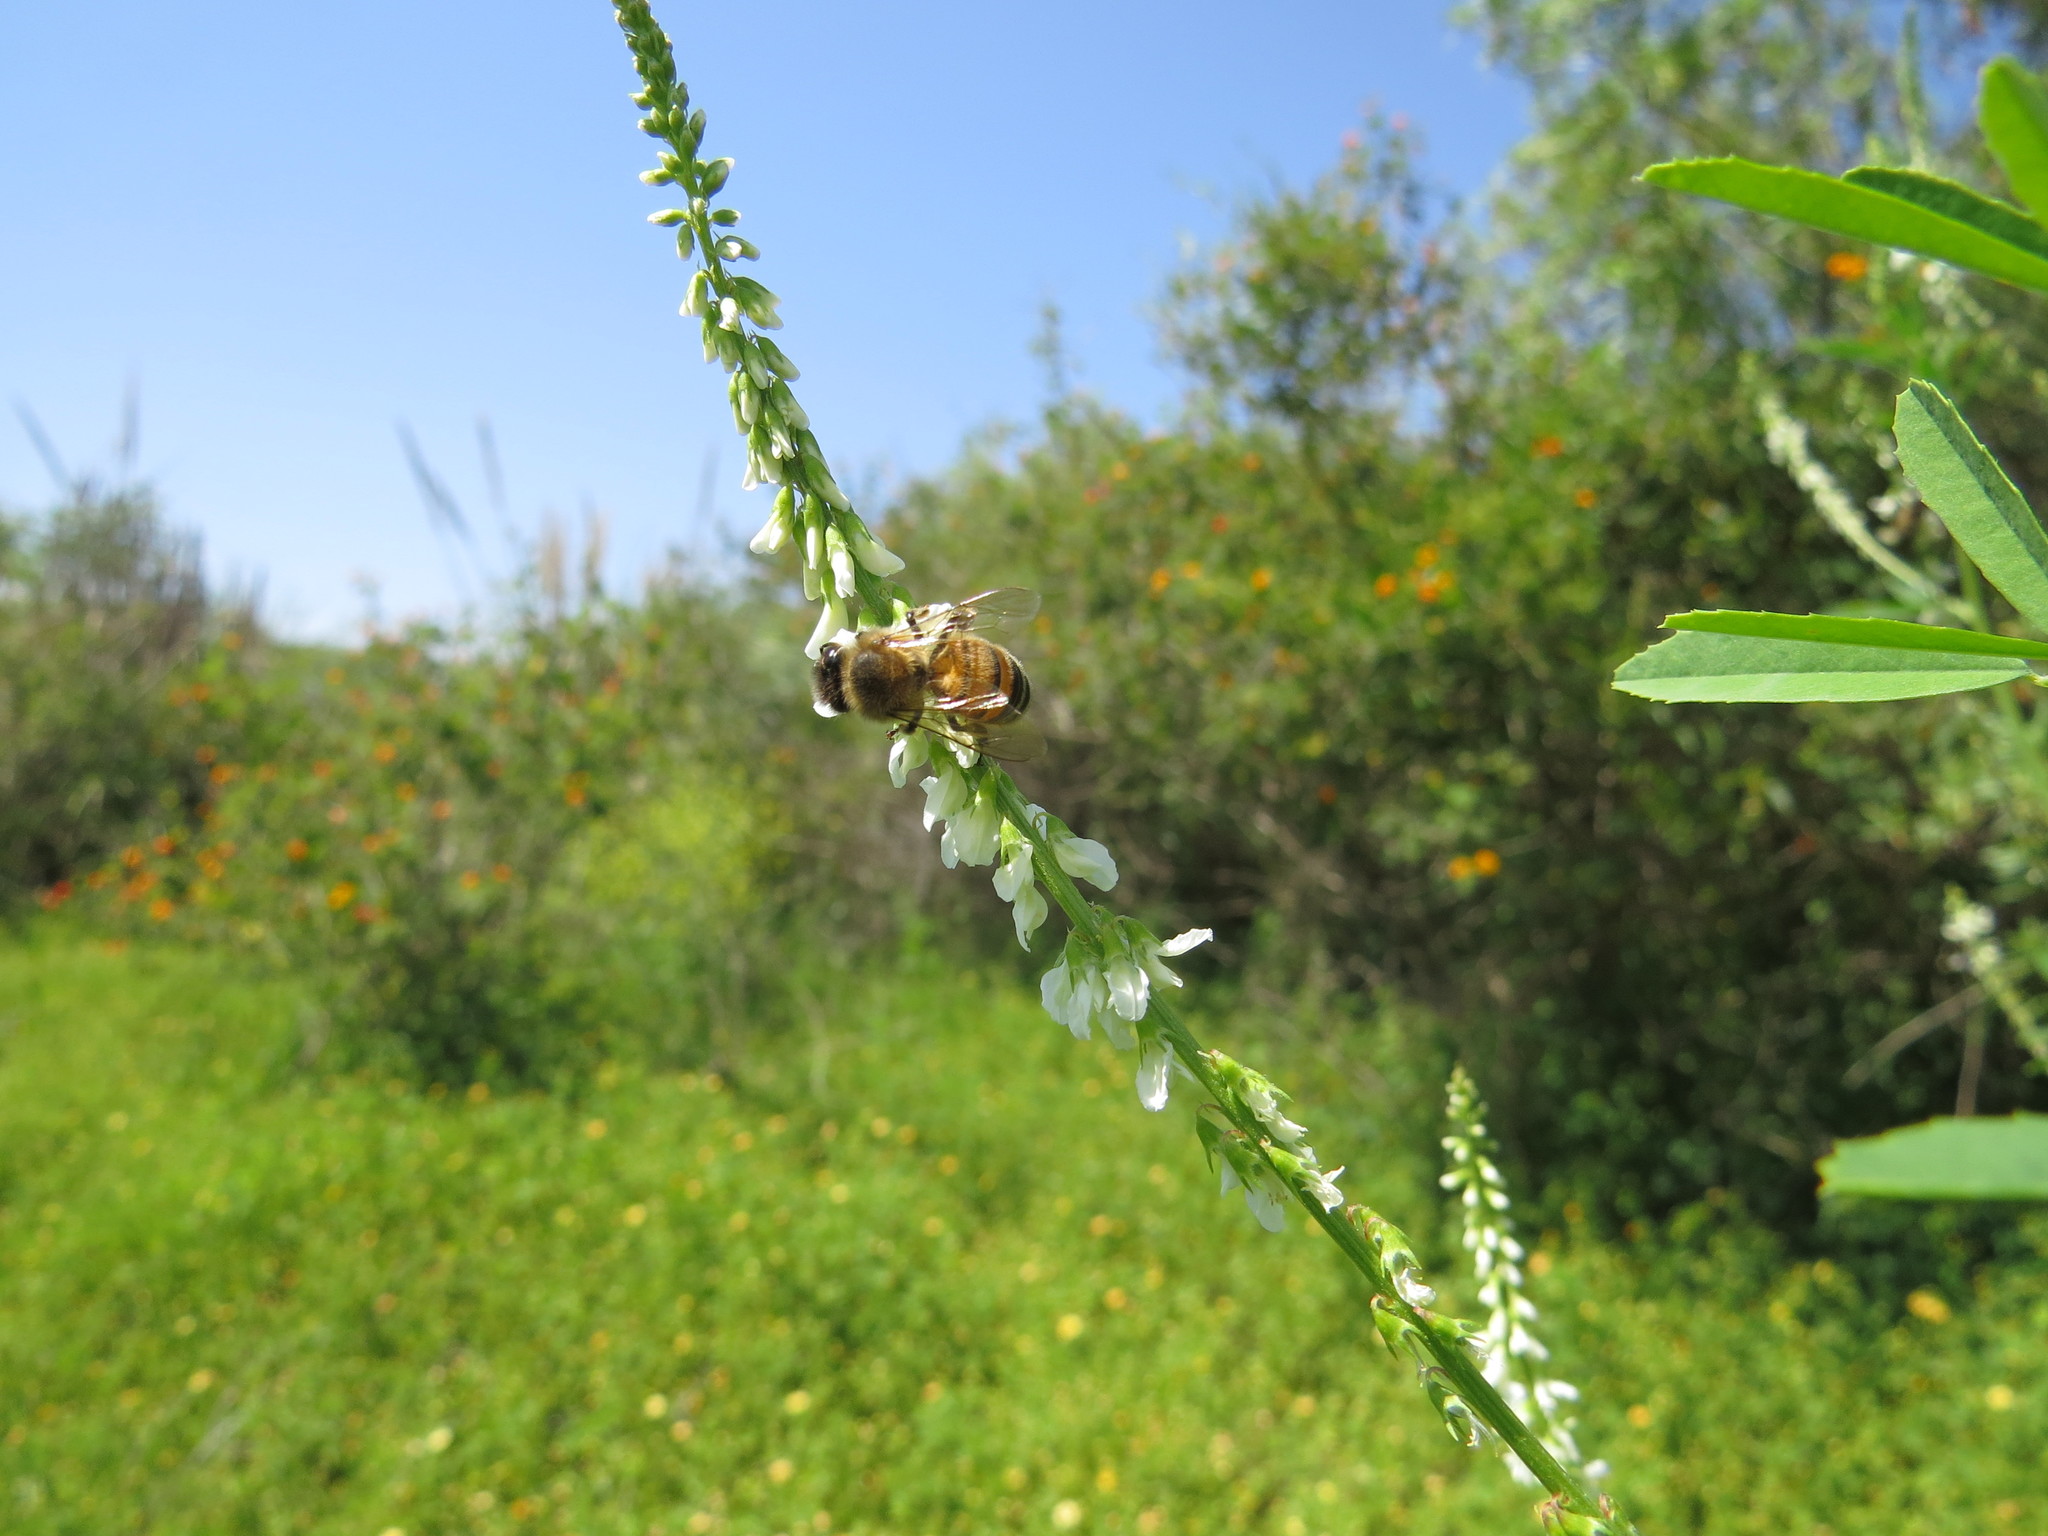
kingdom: Animalia
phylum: Arthropoda
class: Insecta
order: Hymenoptera
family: Apidae
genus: Apis
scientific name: Apis mellifera
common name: Honey bee
